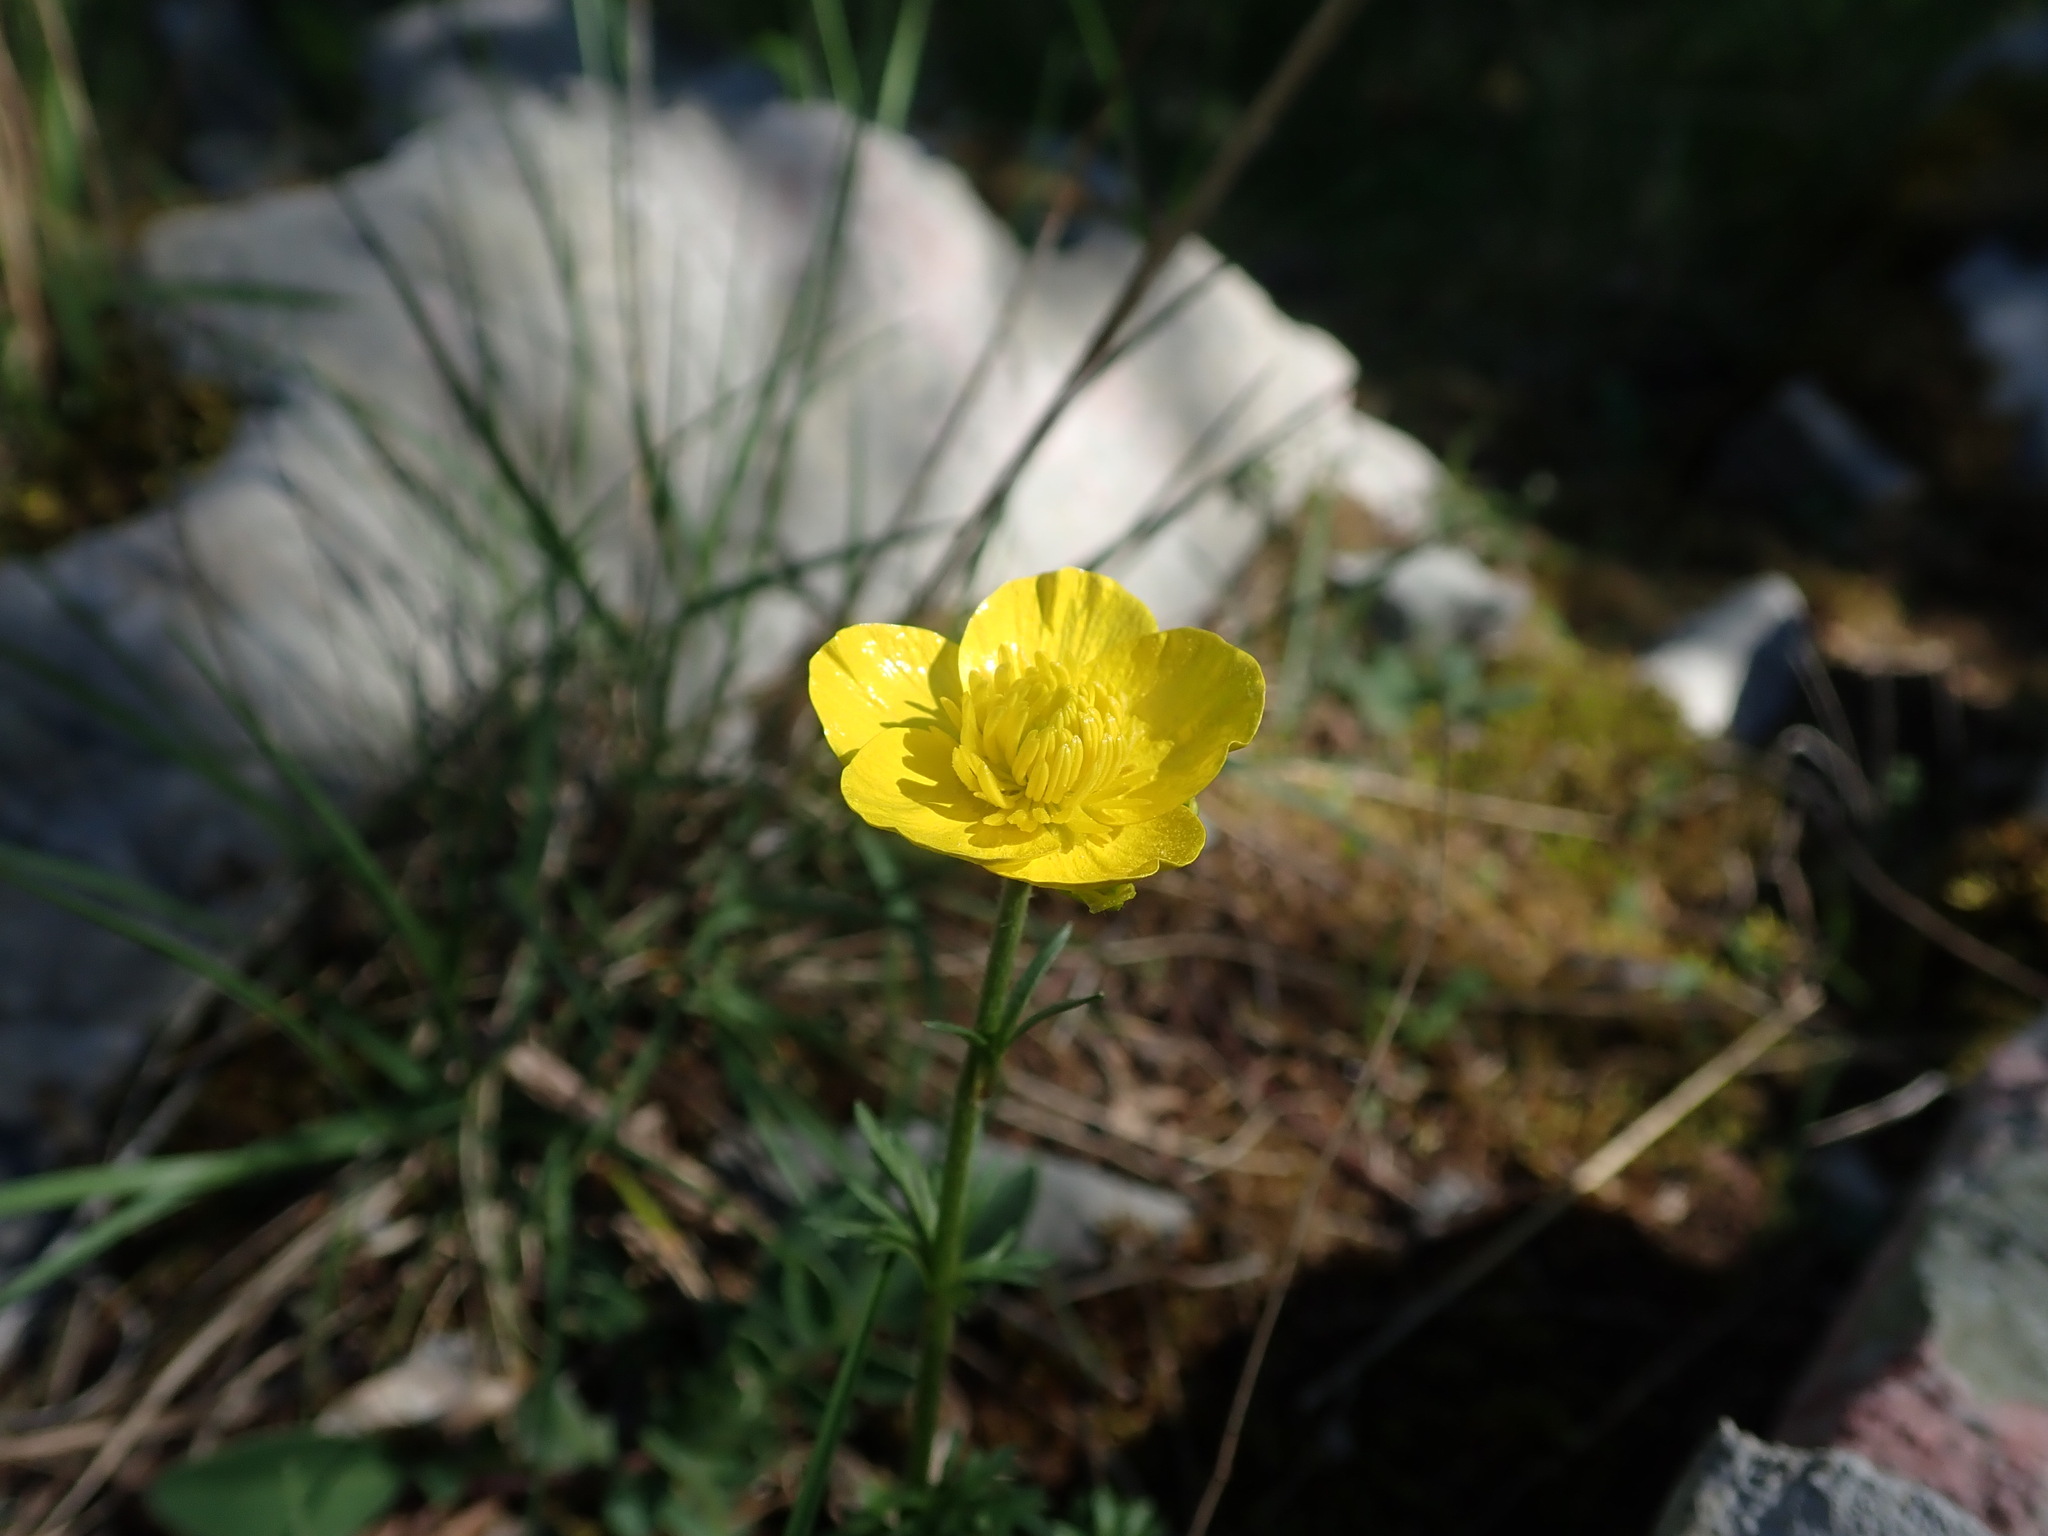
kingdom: Plantae
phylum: Tracheophyta
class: Magnoliopsida
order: Ranunculales
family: Ranunculaceae
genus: Ranunculus
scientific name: Ranunculus millefoliatus
